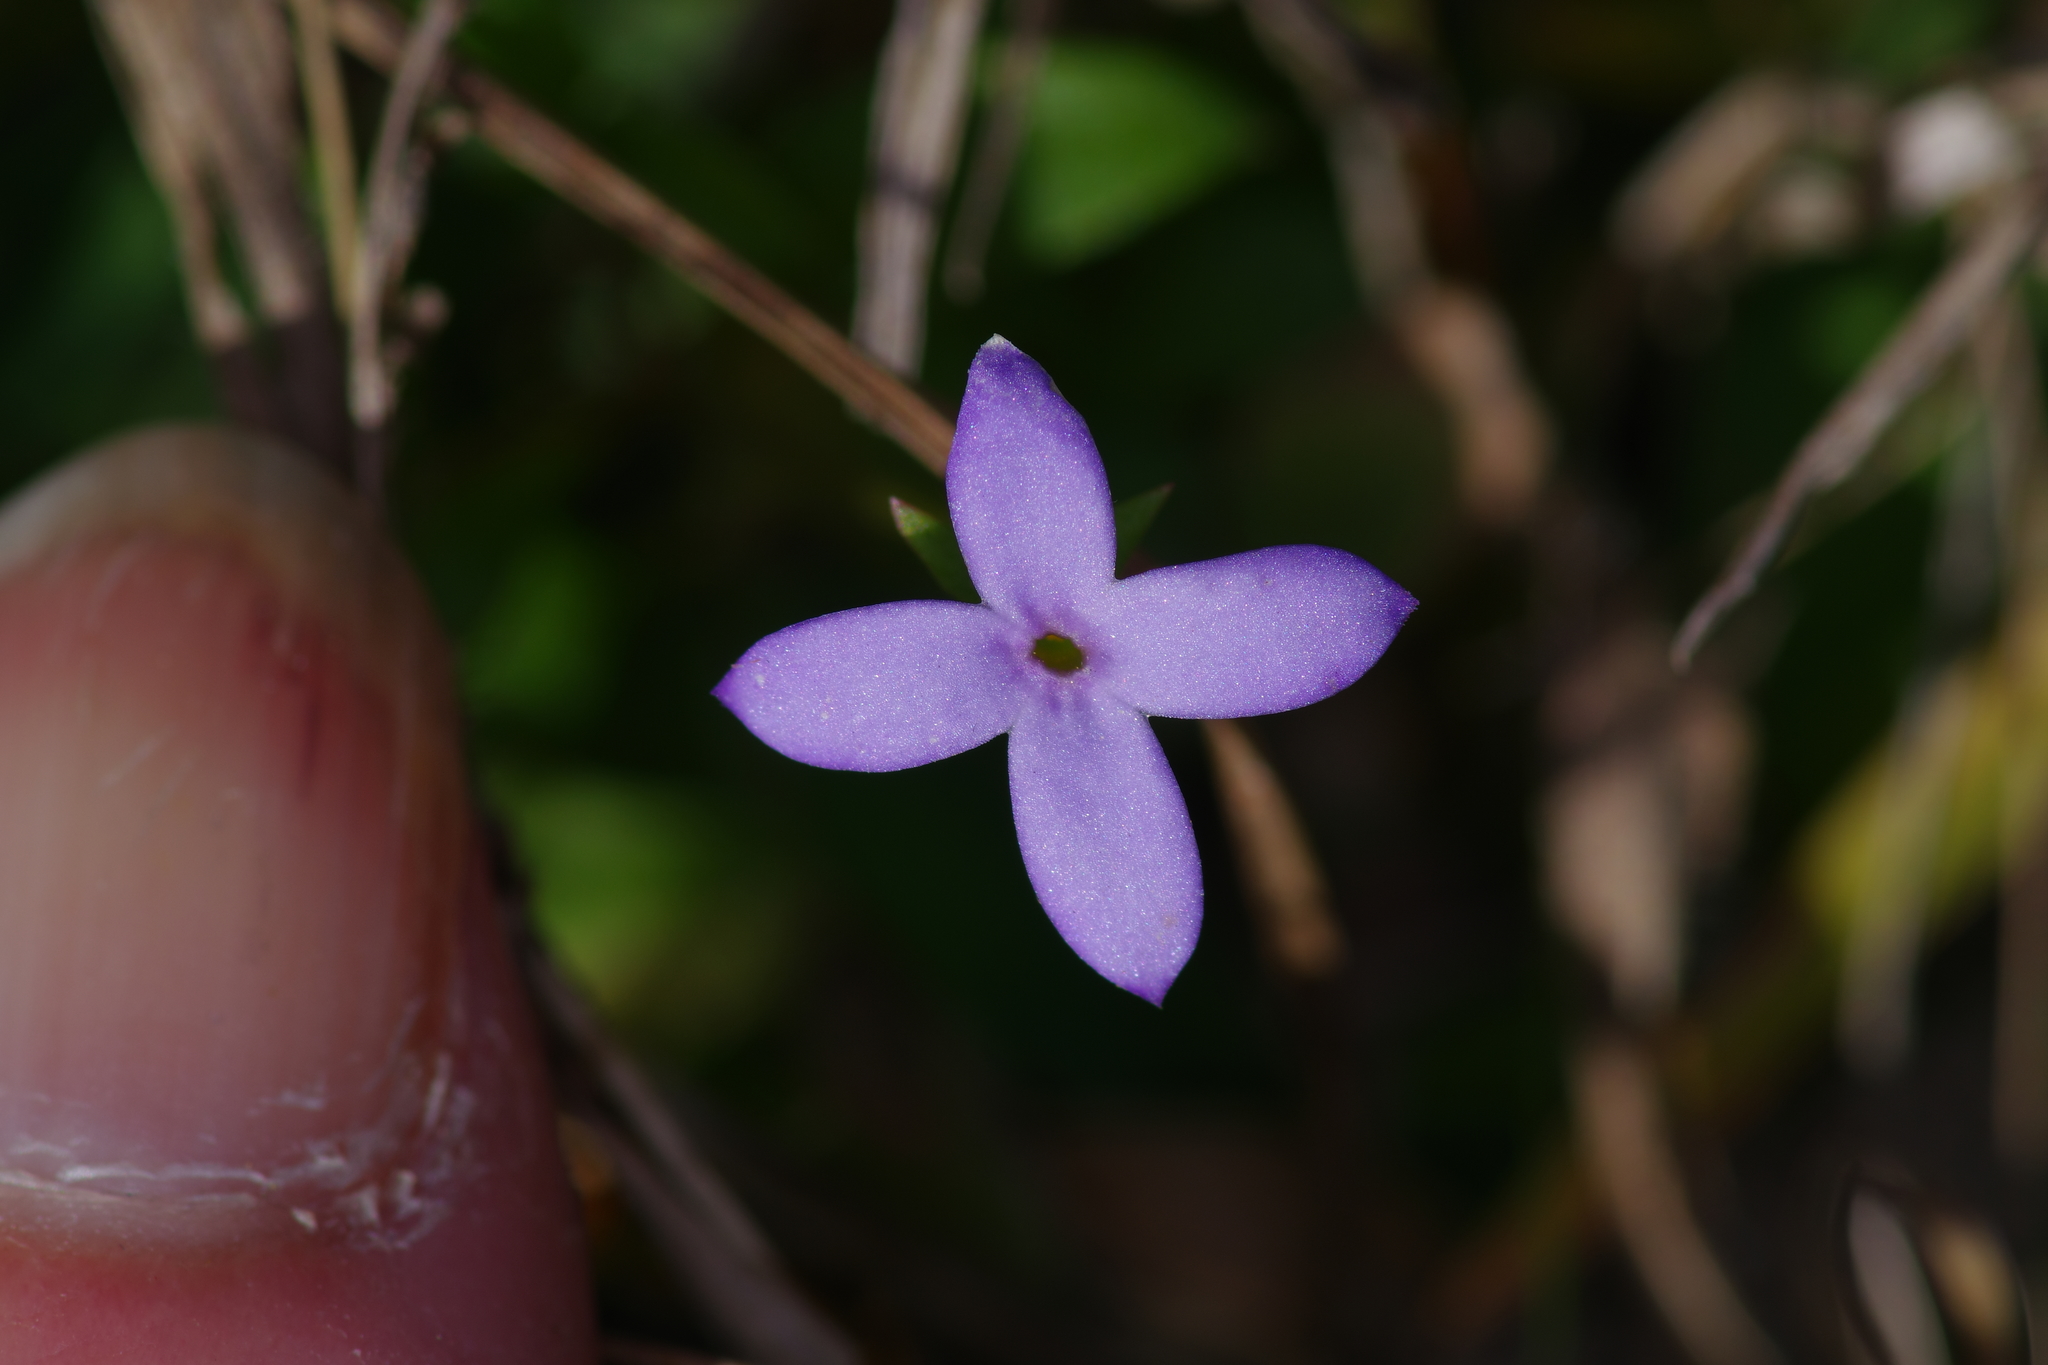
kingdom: Plantae
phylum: Tracheophyta
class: Magnoliopsida
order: Gentianales
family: Rubiaceae
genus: Houstonia
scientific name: Houstonia pusilla
